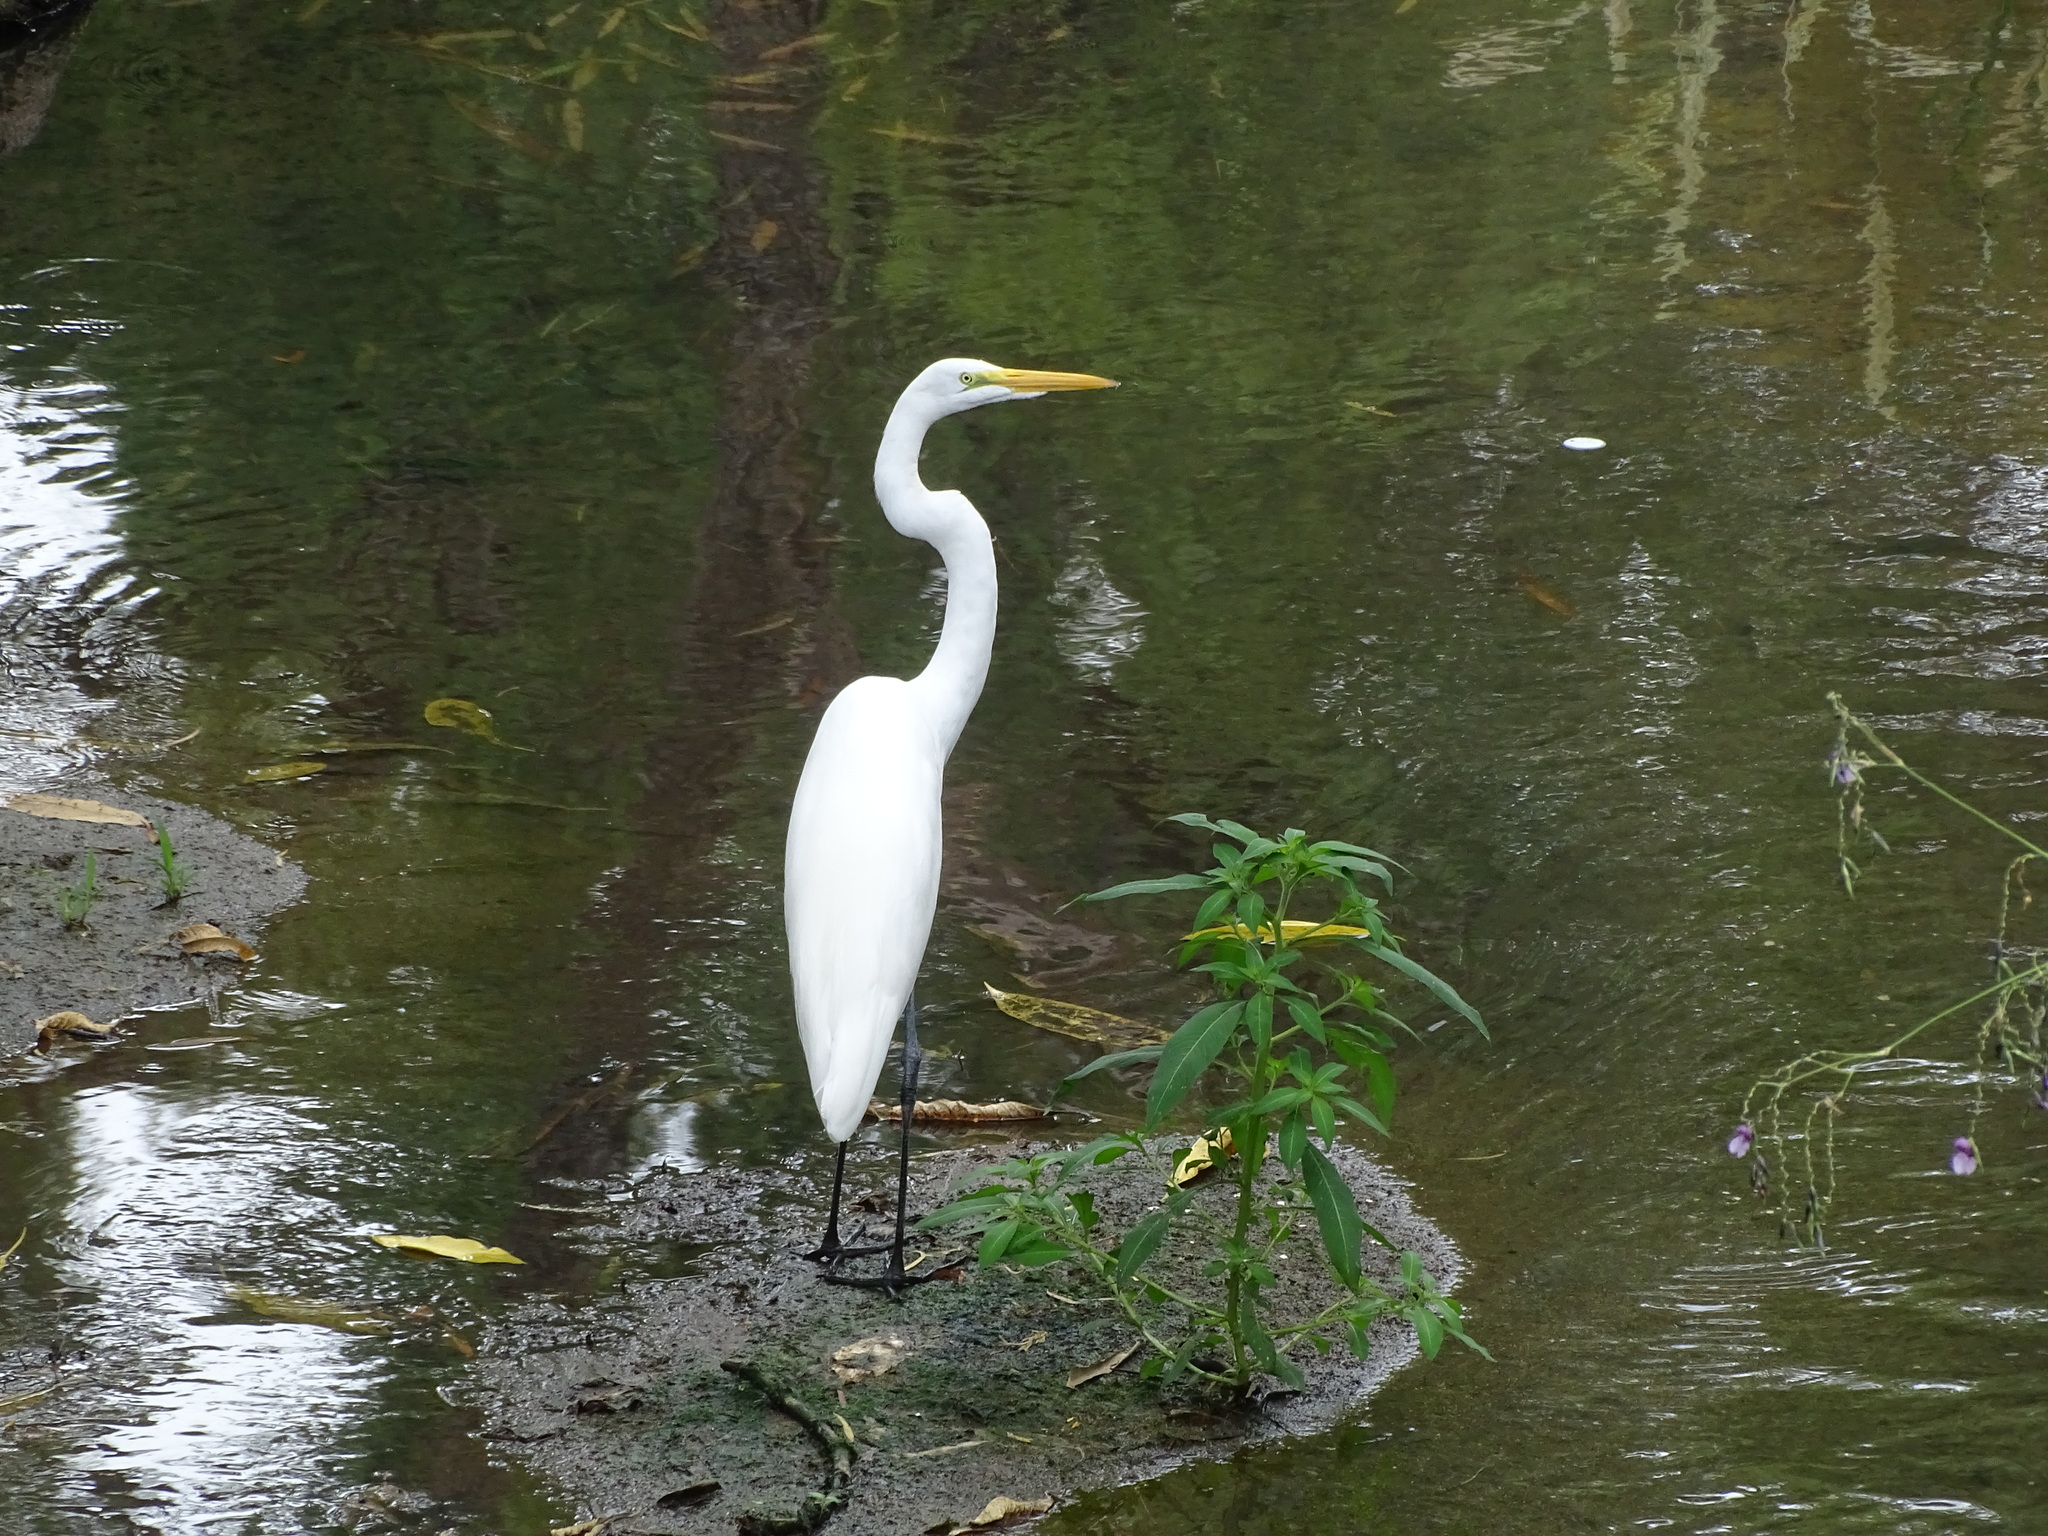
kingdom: Animalia
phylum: Chordata
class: Aves
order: Pelecaniformes
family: Ardeidae
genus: Ardea
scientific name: Ardea alba
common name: Great egret
